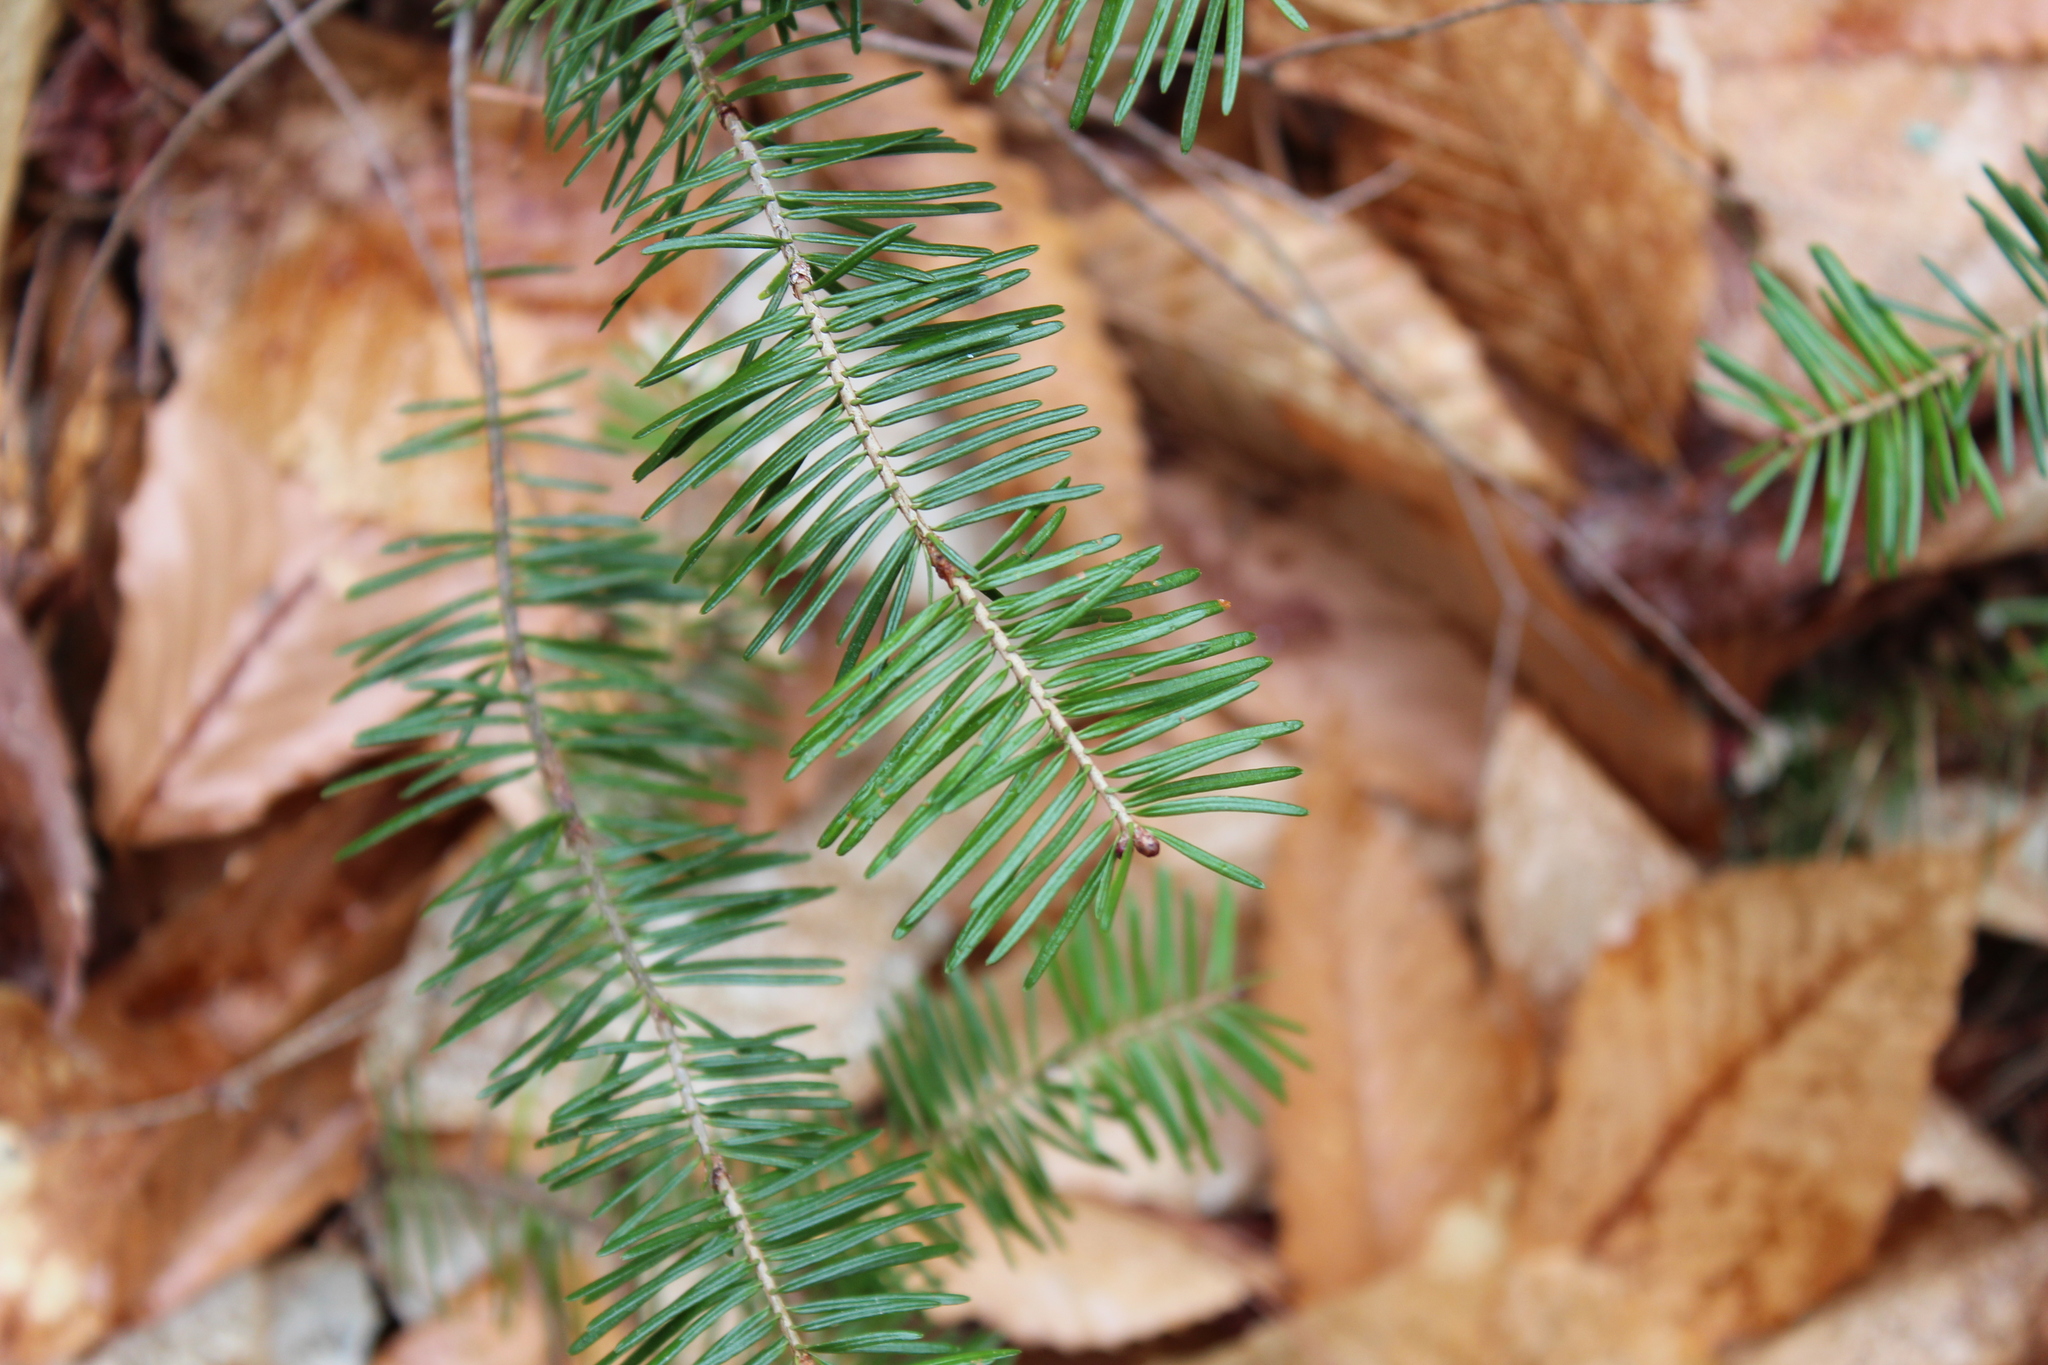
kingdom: Plantae
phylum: Tracheophyta
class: Pinopsida
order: Pinales
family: Pinaceae
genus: Abies
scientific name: Abies balsamea
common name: Balsam fir
